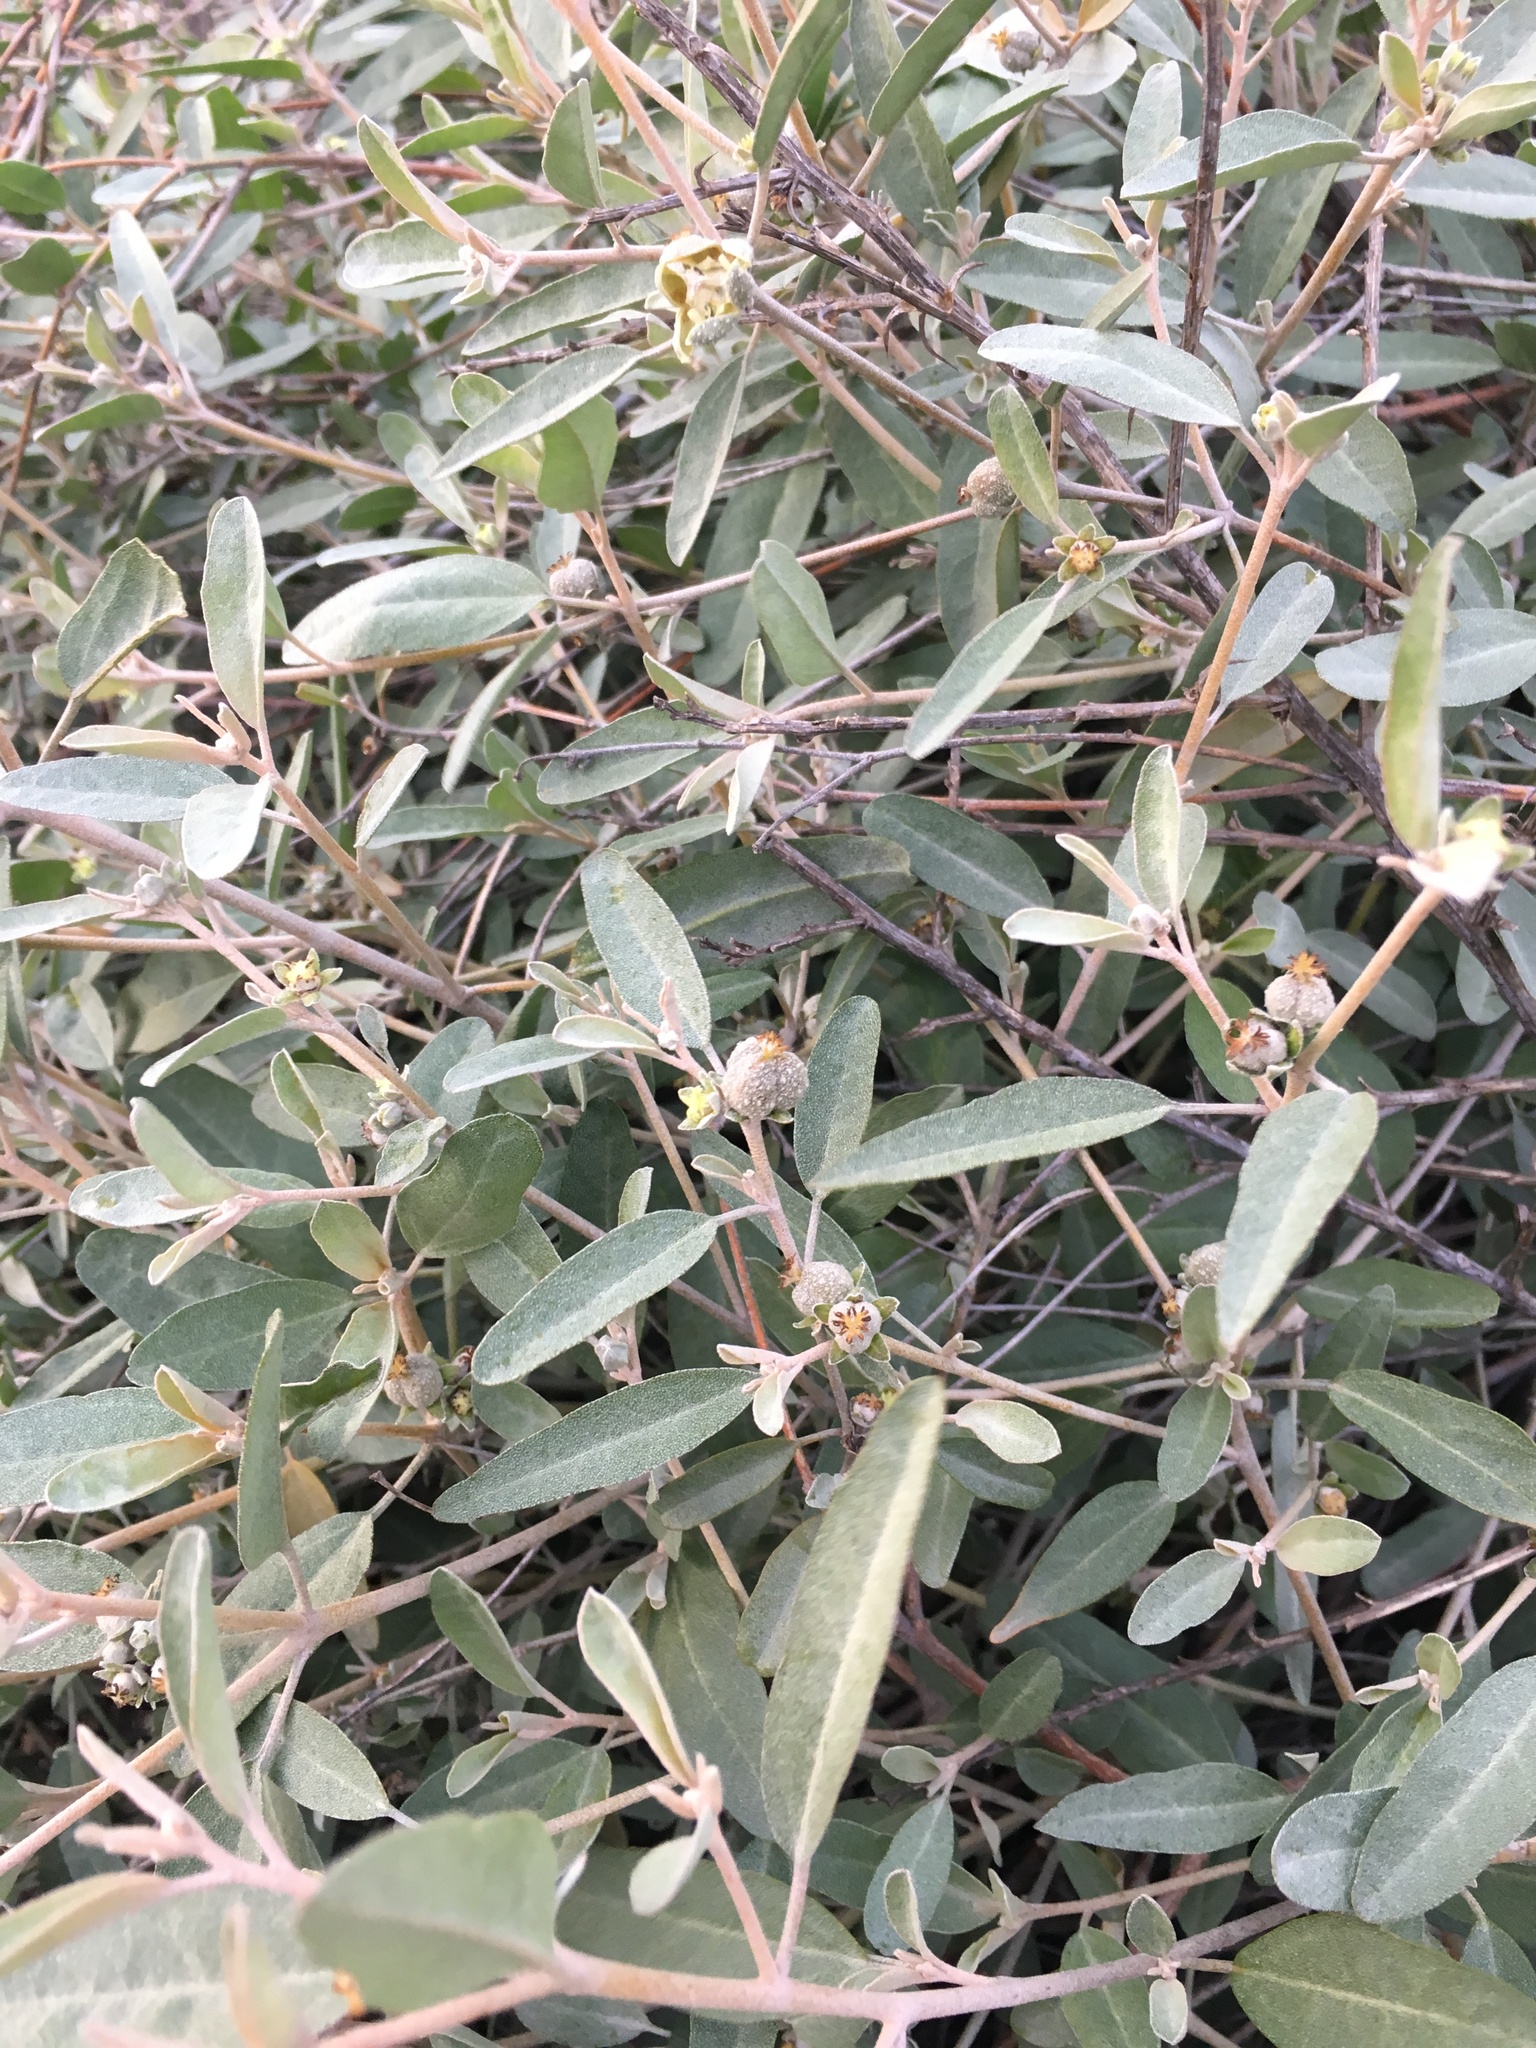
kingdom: Plantae
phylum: Tracheophyta
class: Magnoliopsida
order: Malpighiales
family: Euphorbiaceae
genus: Croton
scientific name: Croton californicus
